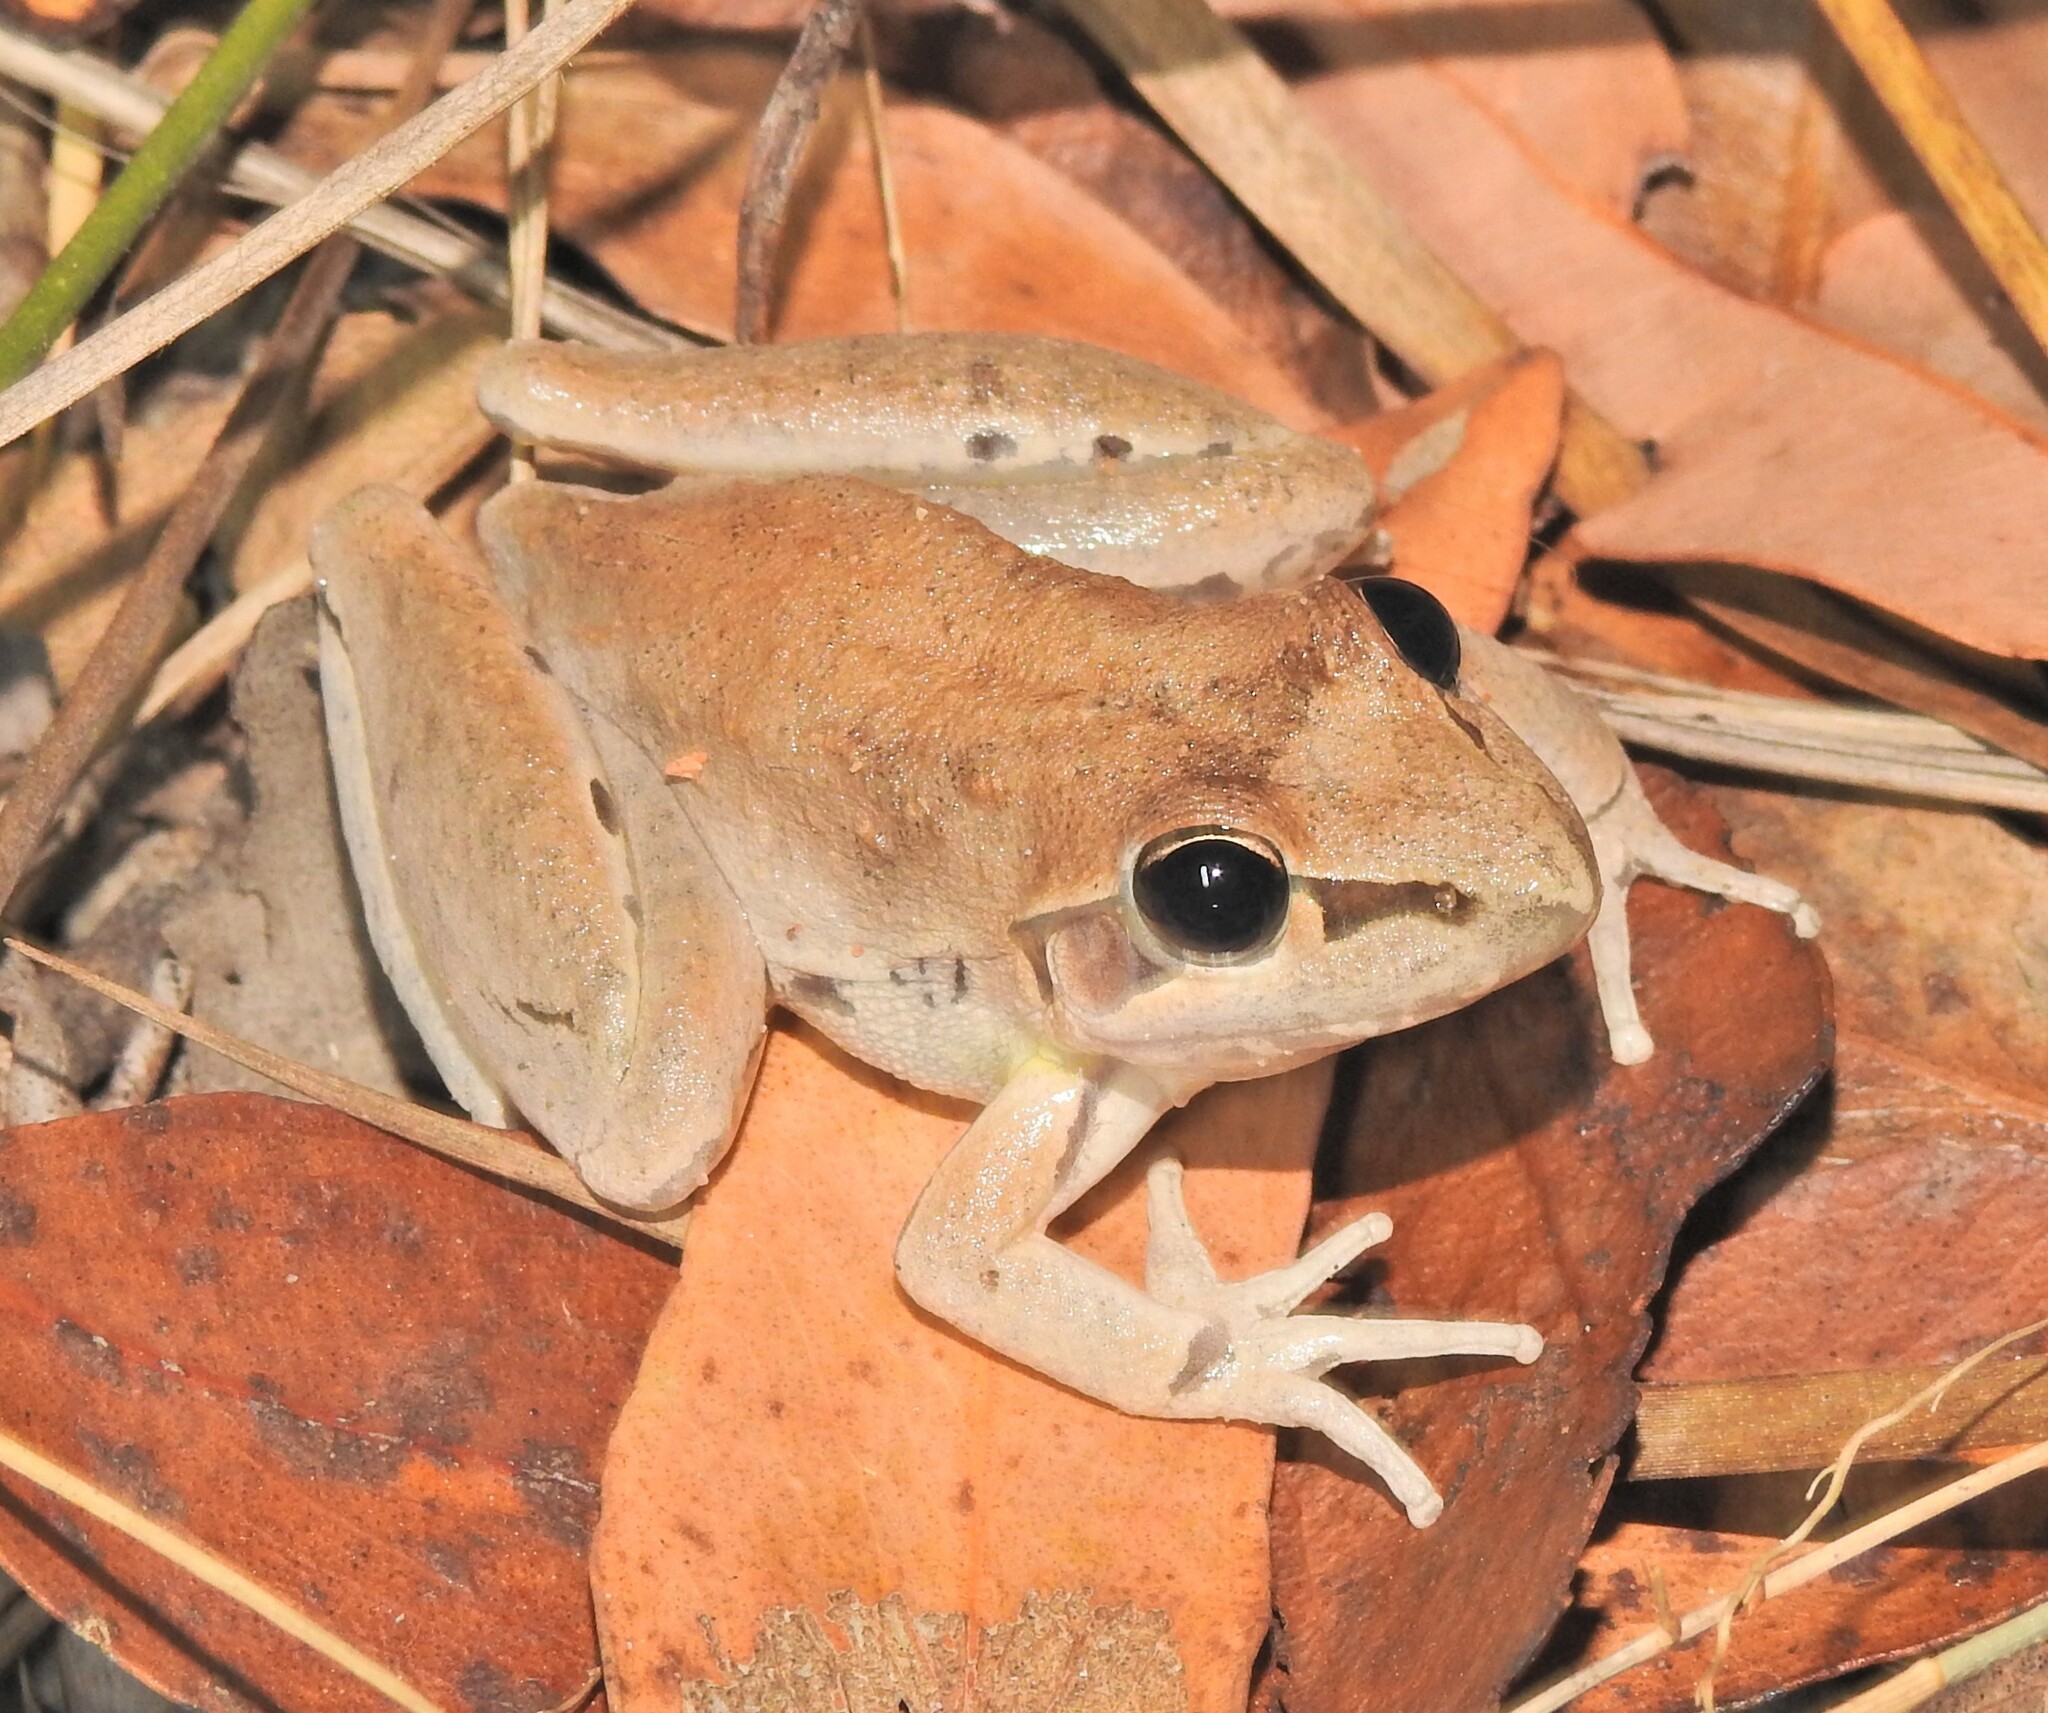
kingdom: Animalia
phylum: Chordata
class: Amphibia
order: Anura
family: Pelodryadidae
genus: Litoria
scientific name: Litoria latopalmata
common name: Broad-palmed rocket frog
